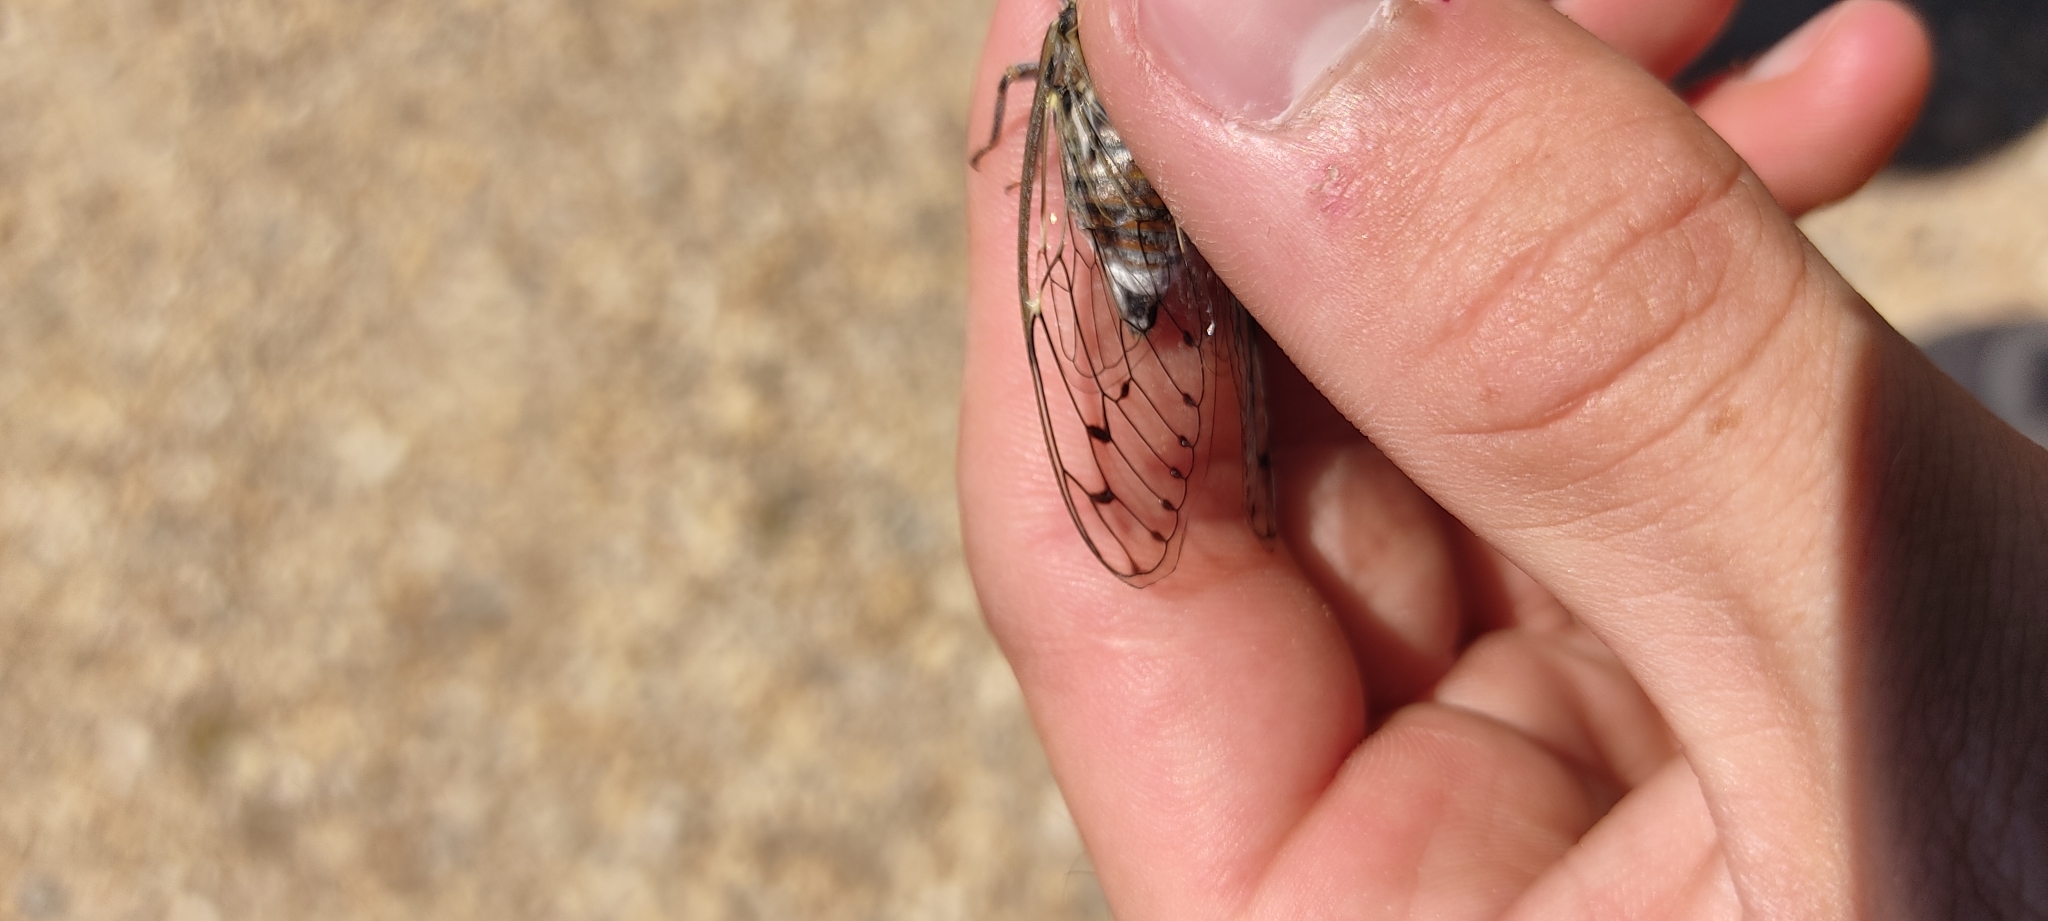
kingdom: Animalia
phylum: Arthropoda
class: Insecta
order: Hemiptera
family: Cicadidae
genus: Cicada
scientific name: Cicada orni
